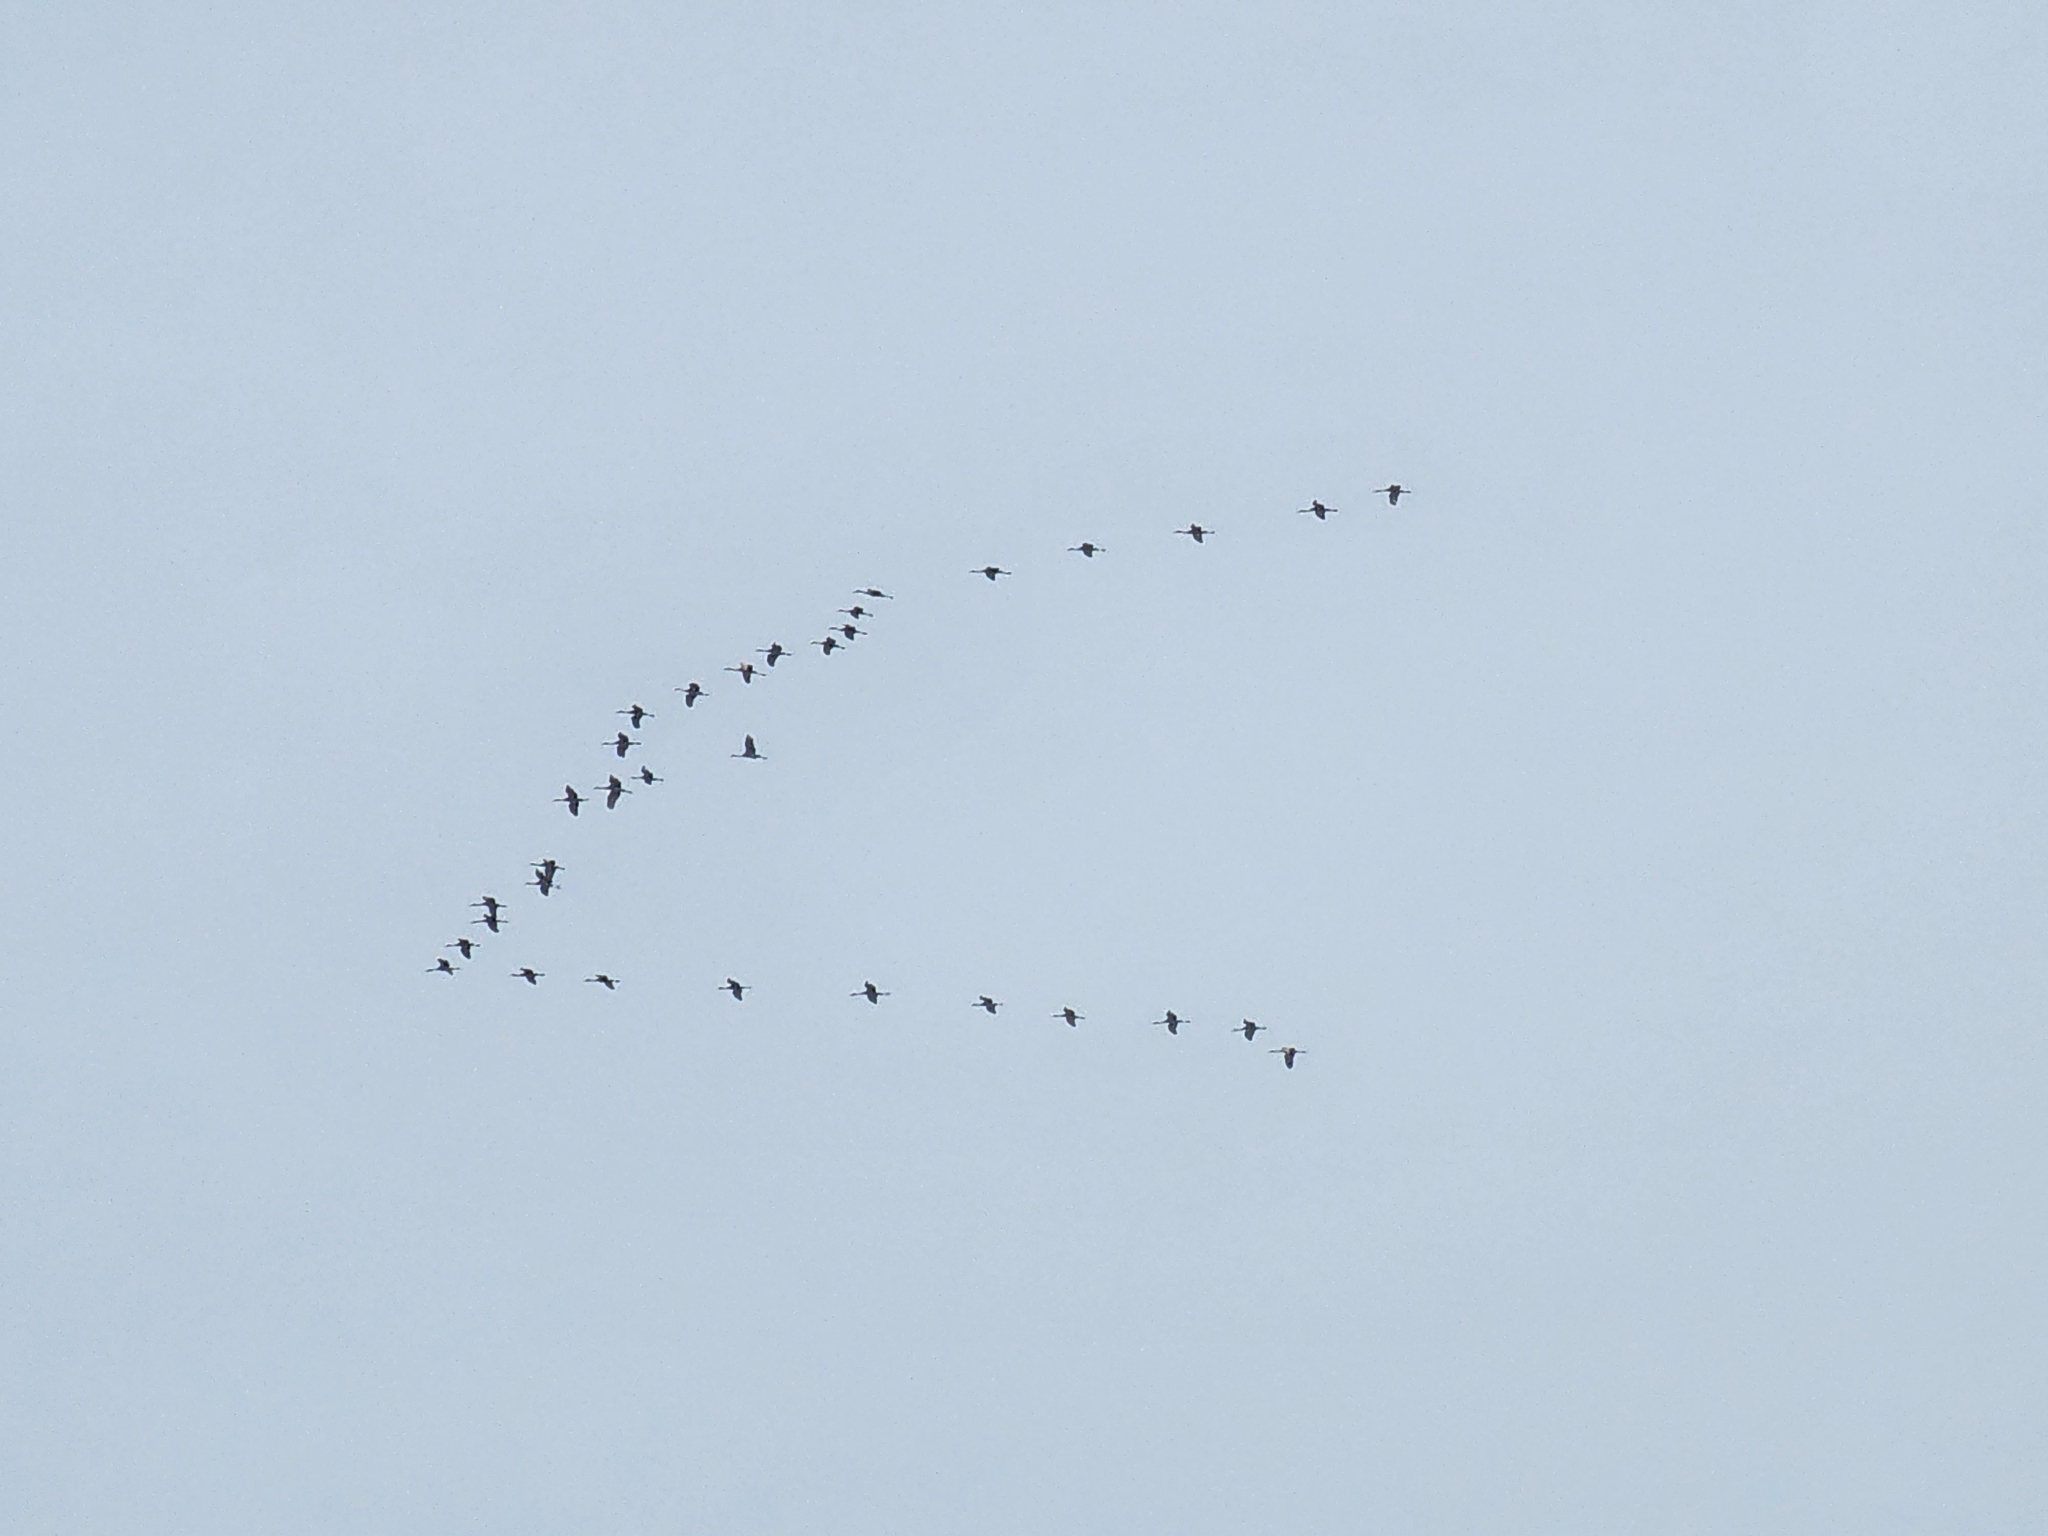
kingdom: Animalia
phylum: Chordata
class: Aves
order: Gruiformes
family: Gruidae
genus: Grus
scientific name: Grus canadensis
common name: Sandhill crane
